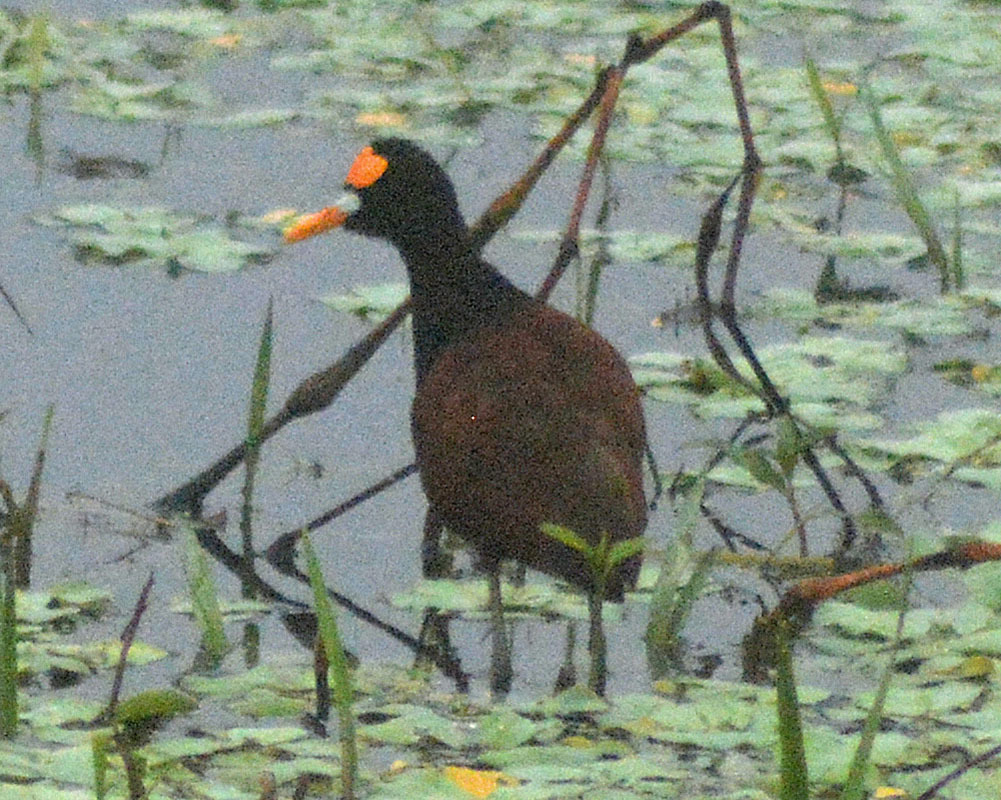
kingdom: Animalia
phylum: Chordata
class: Aves
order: Charadriiformes
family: Jacanidae
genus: Jacana
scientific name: Jacana spinosa
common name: Northern jacana
